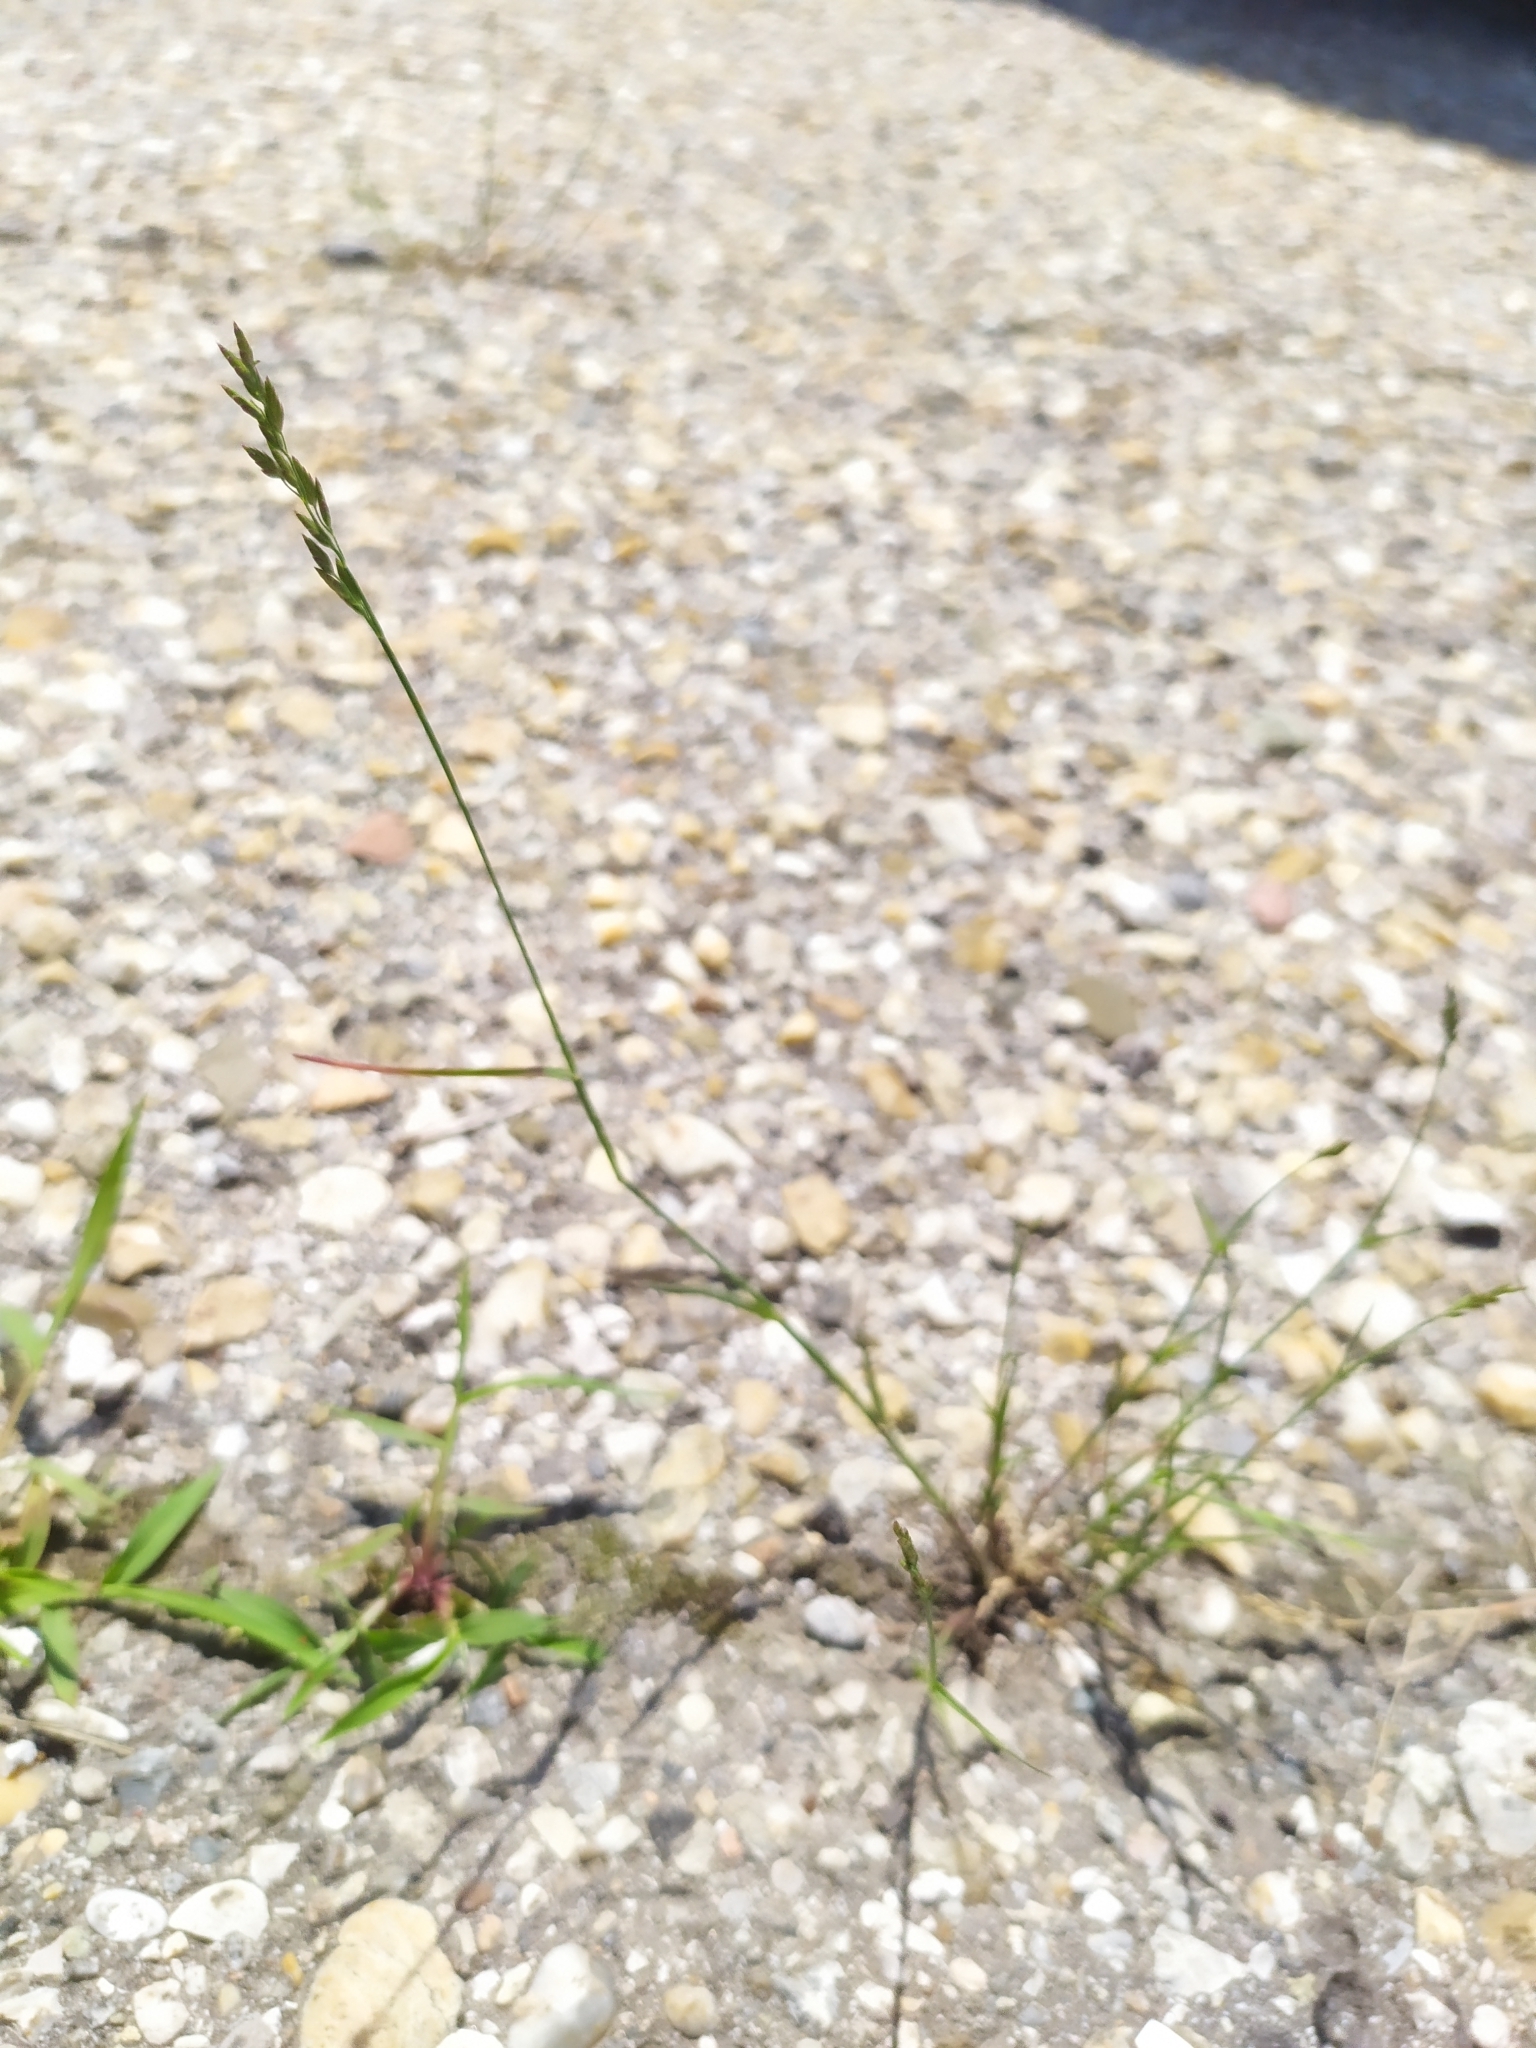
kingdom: Plantae
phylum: Tracheophyta
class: Liliopsida
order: Poales
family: Poaceae
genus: Poa
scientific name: Poa compressa
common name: Canada bluegrass
